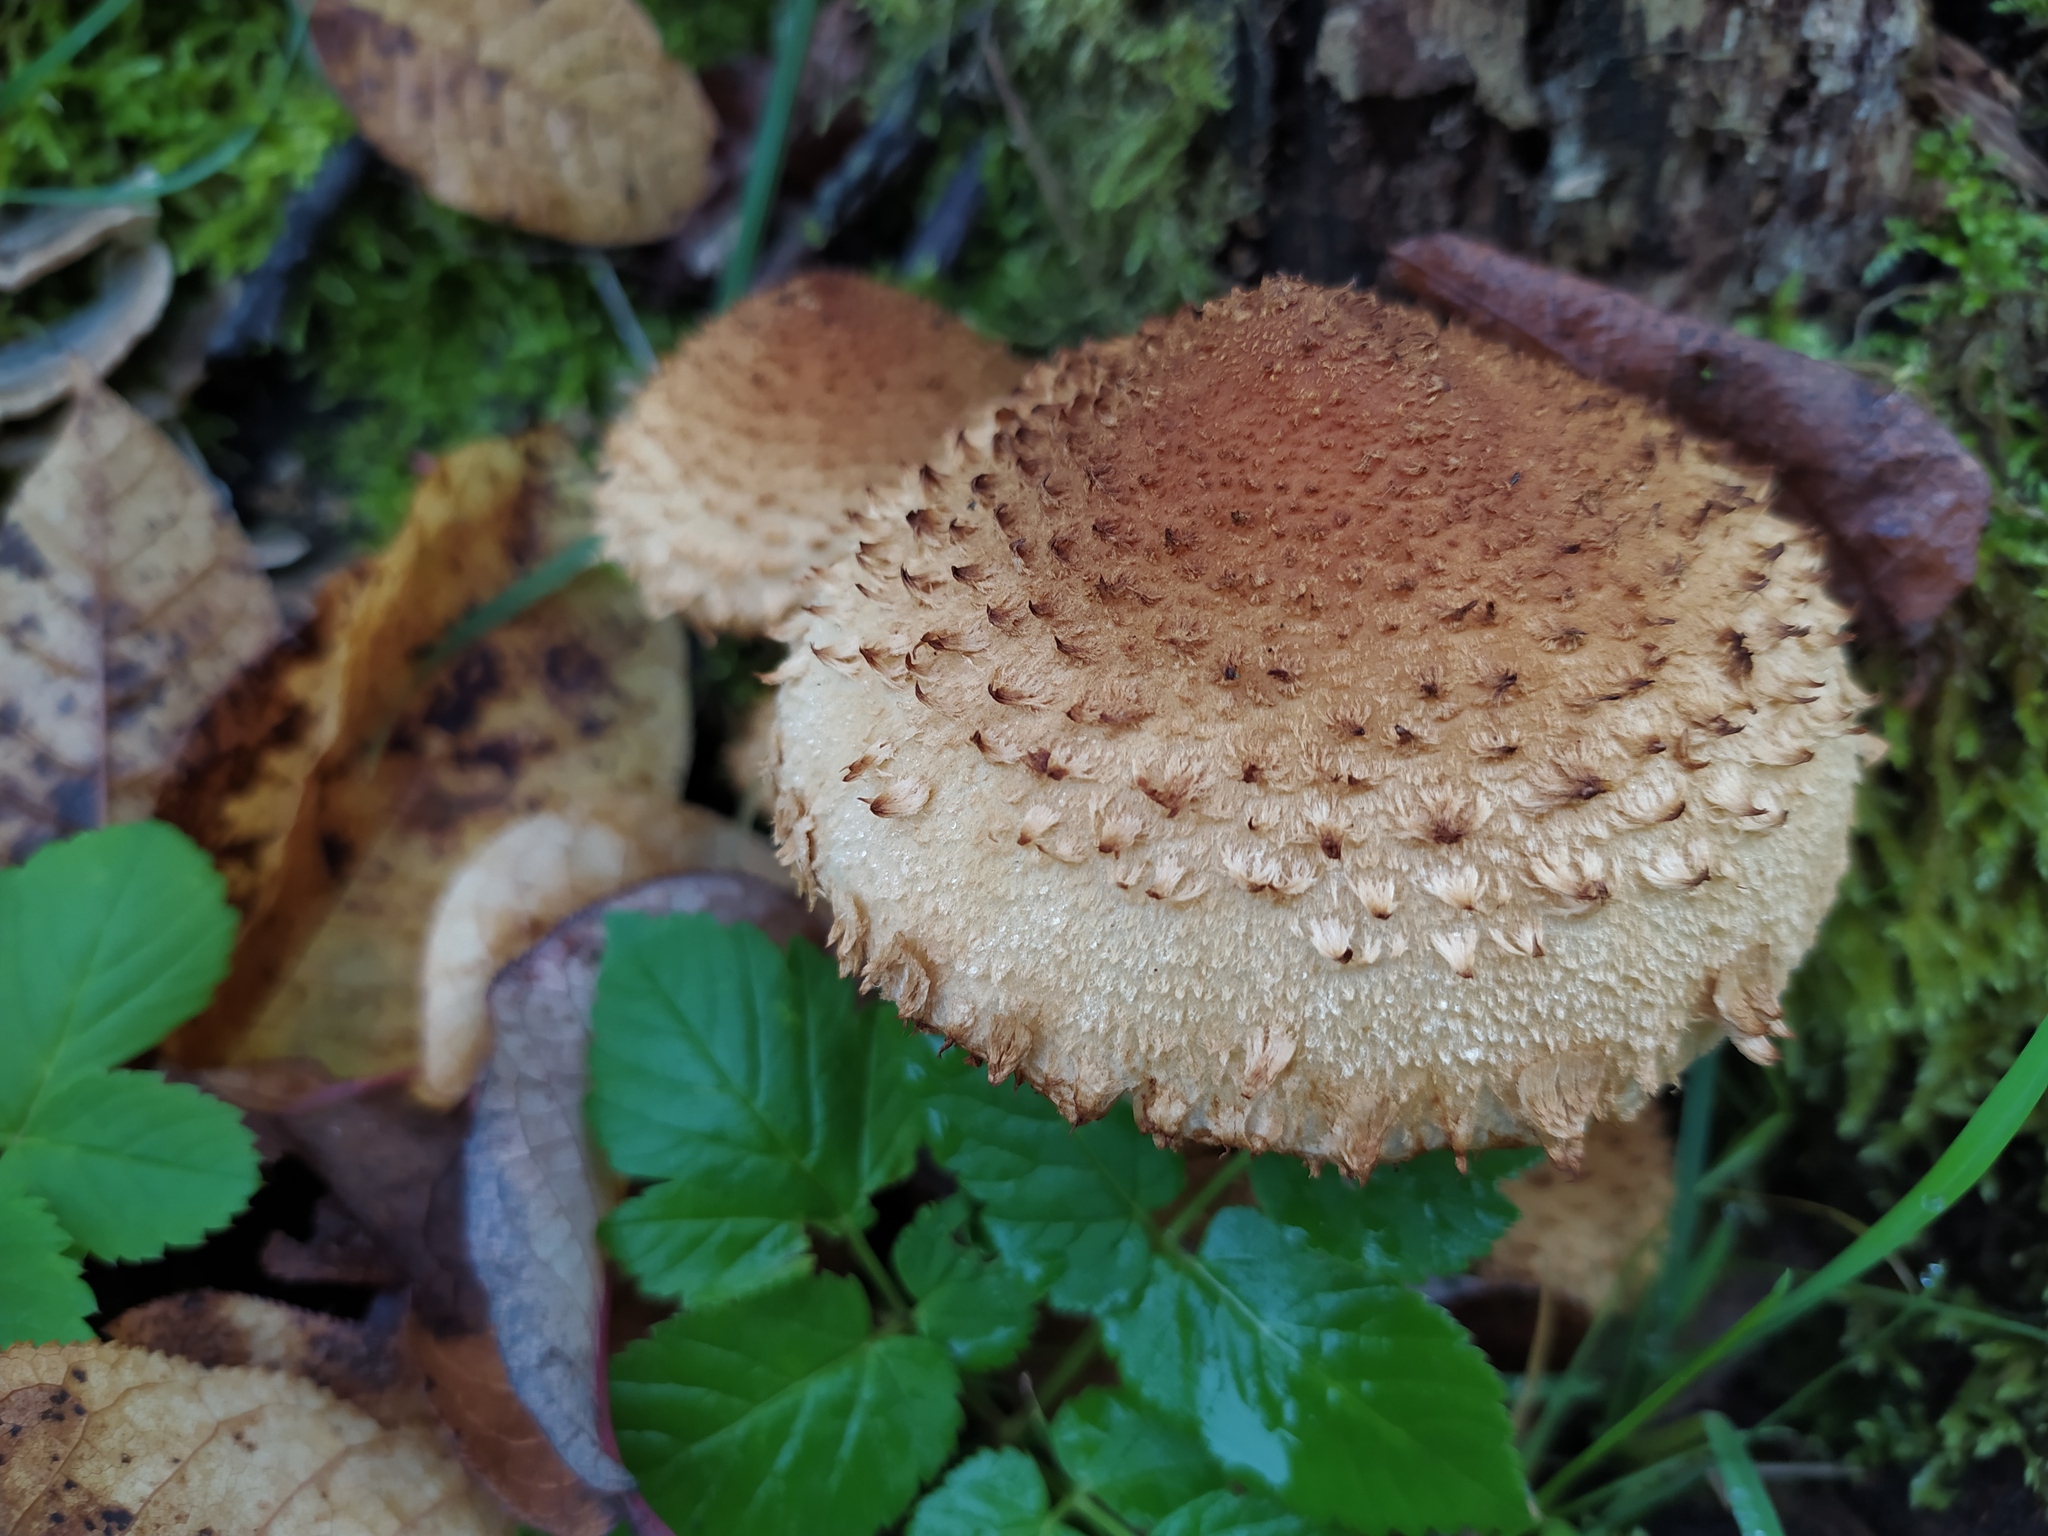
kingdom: Fungi
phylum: Basidiomycota
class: Agaricomycetes
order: Agaricales
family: Strophariaceae
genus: Pholiota
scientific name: Pholiota squarrosa
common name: Shaggy pholiota
